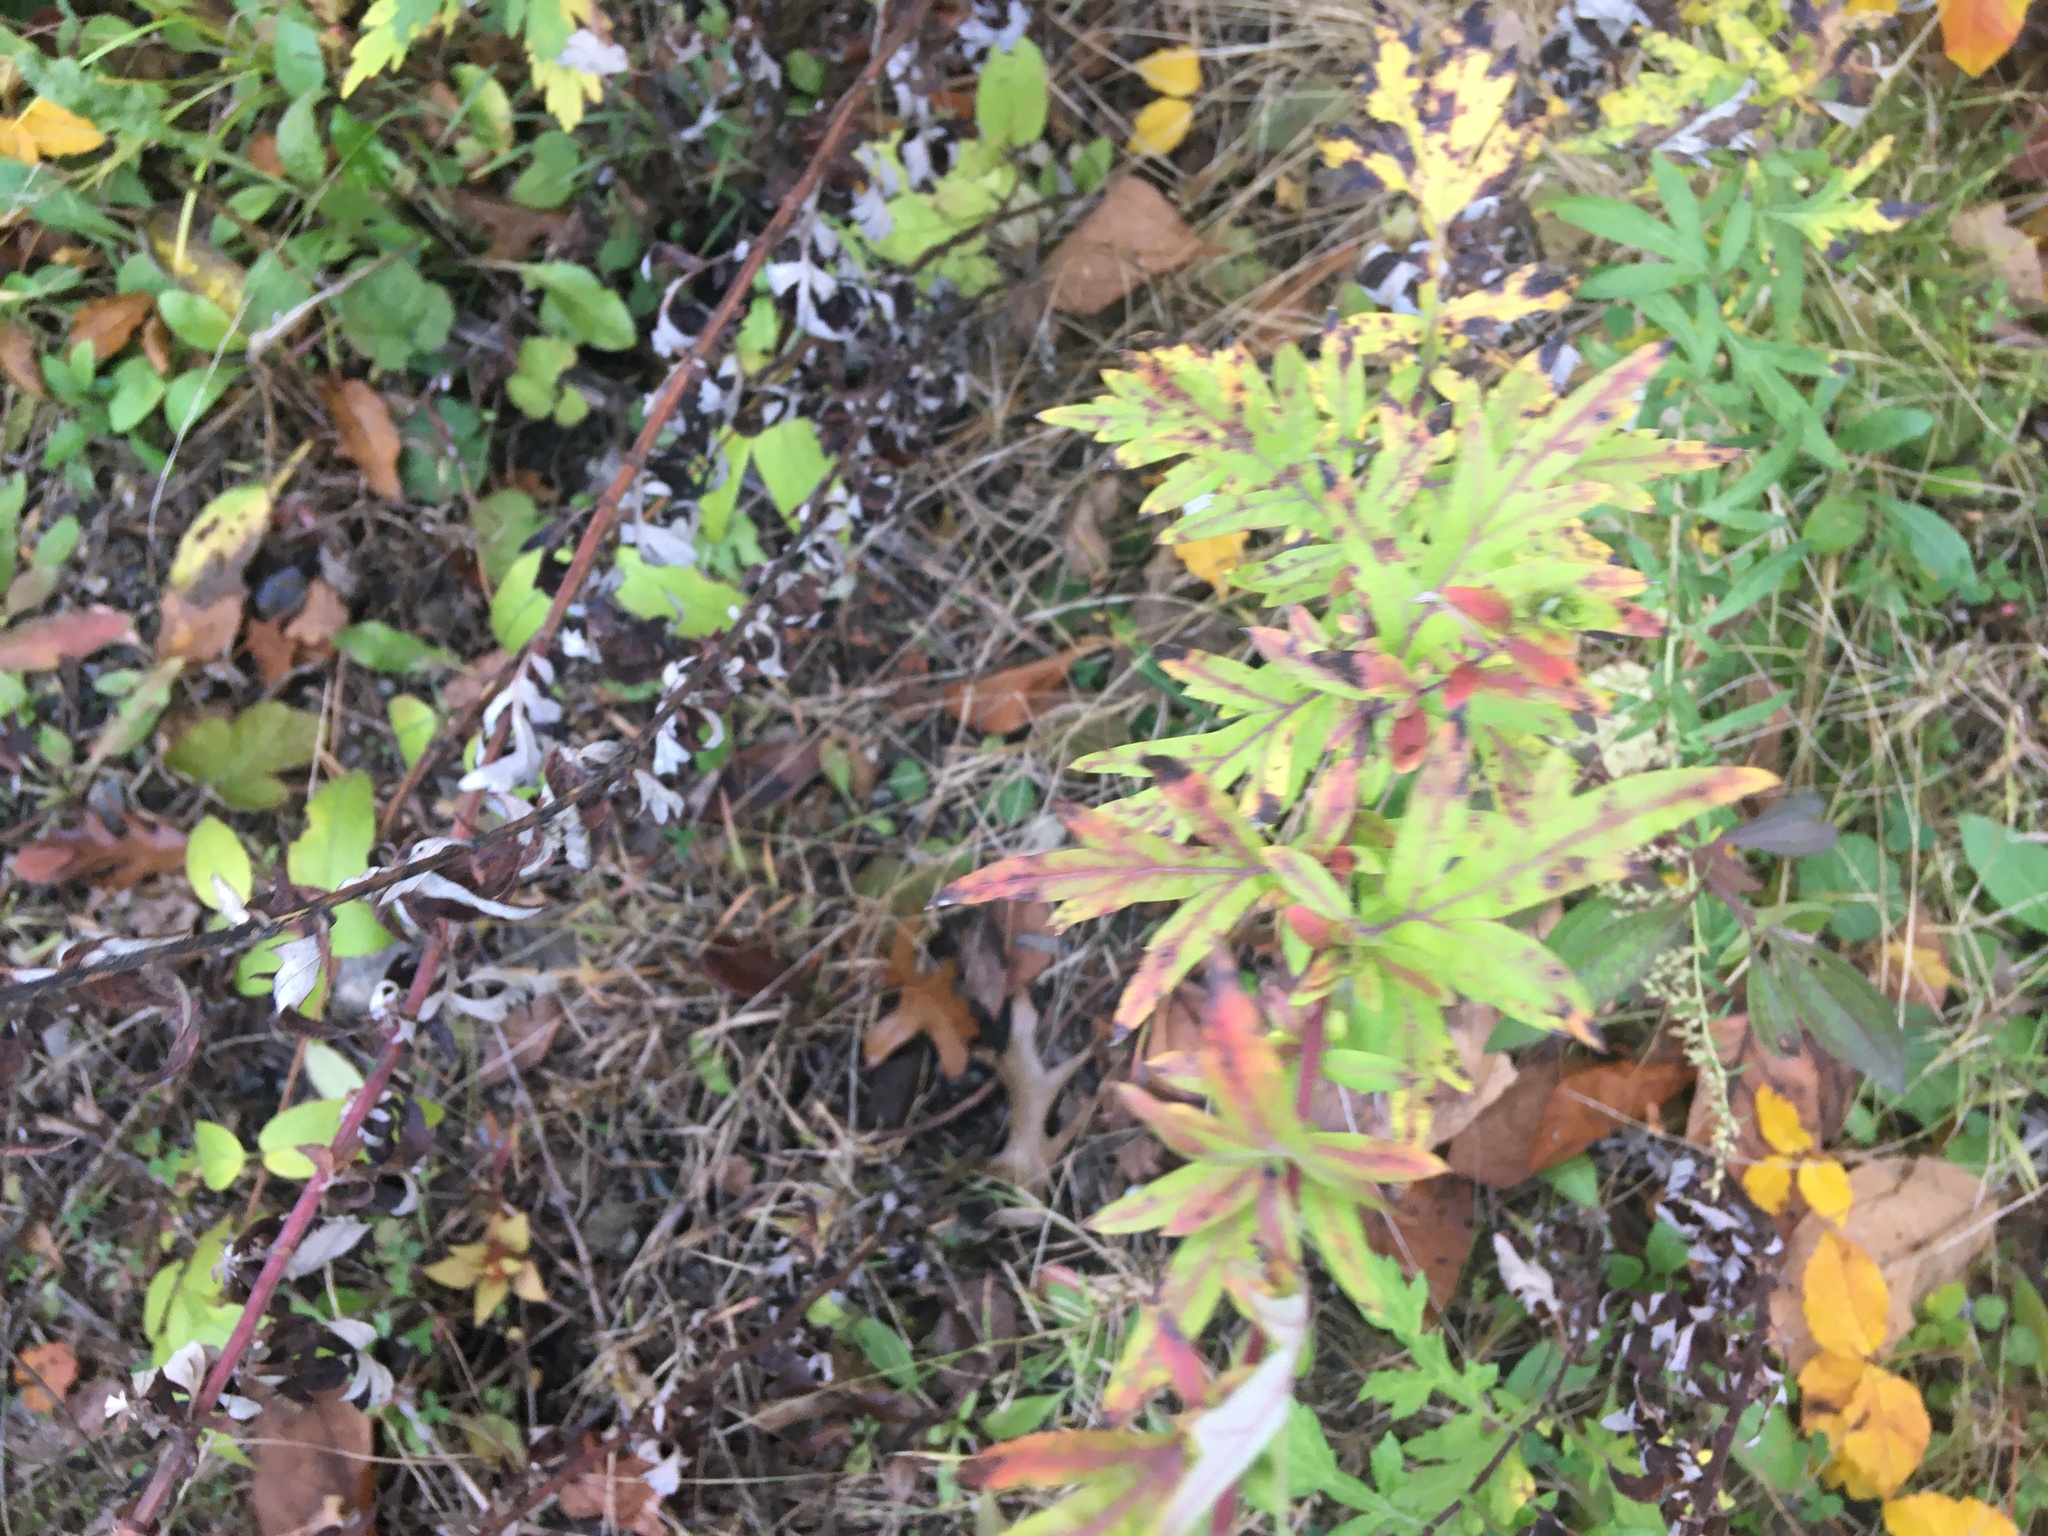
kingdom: Plantae
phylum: Tracheophyta
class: Magnoliopsida
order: Asterales
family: Asteraceae
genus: Artemisia
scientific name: Artemisia vulgaris
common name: Mugwort
